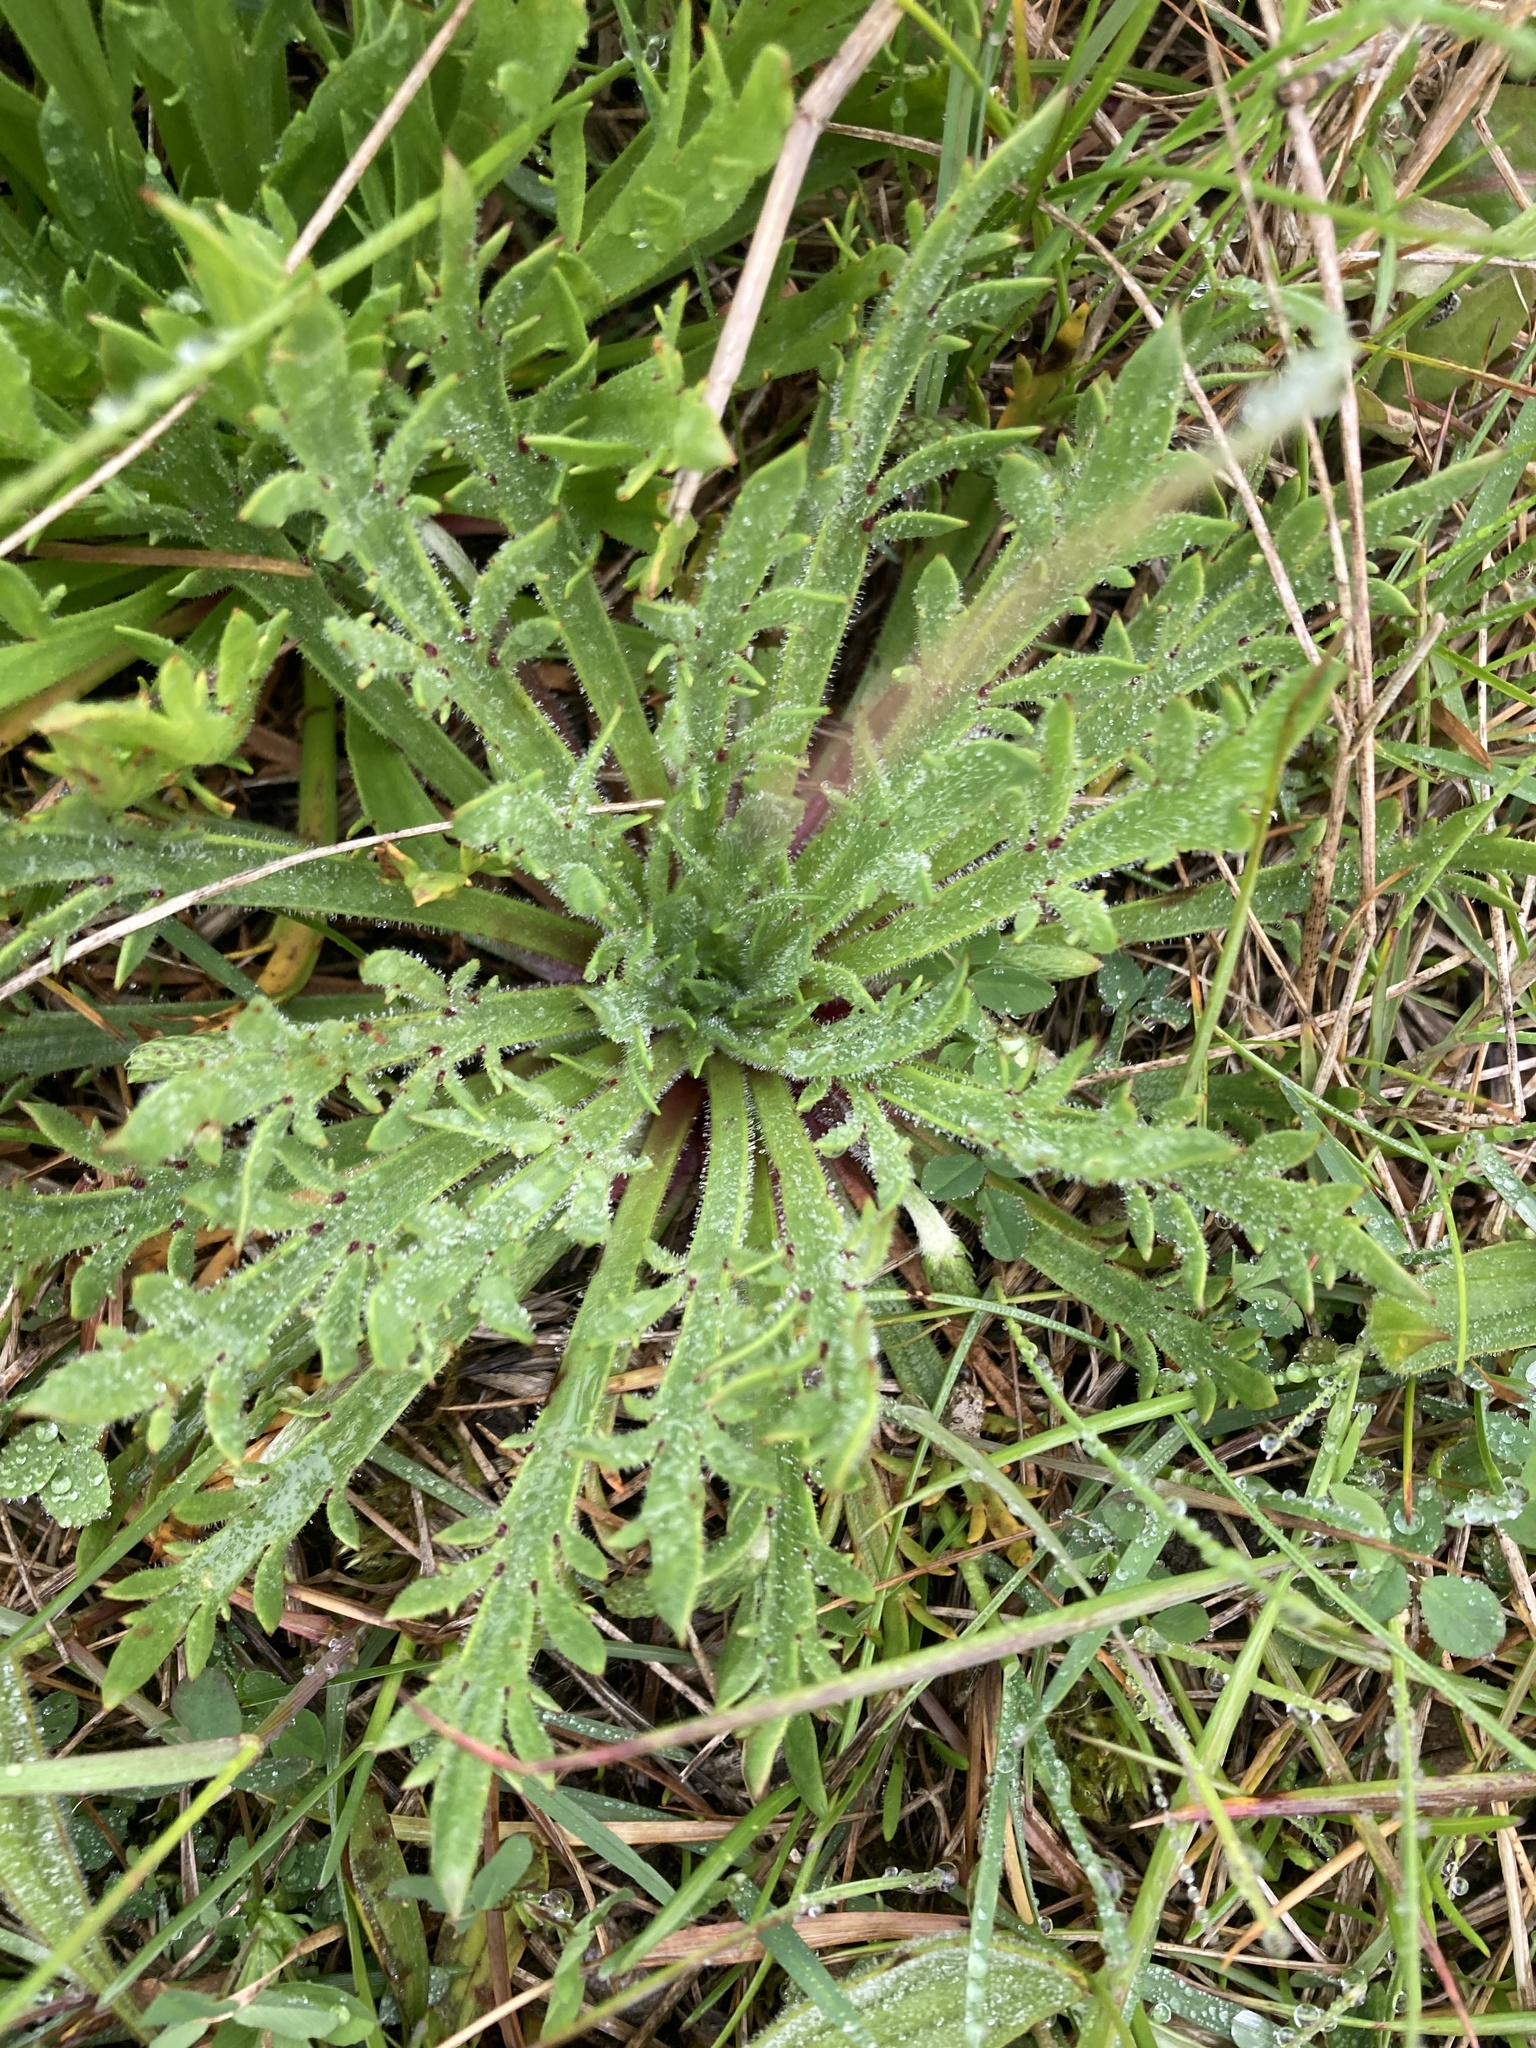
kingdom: Plantae
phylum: Tracheophyta
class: Magnoliopsida
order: Lamiales
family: Plantaginaceae
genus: Plantago
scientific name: Plantago coronopus
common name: Buck's-horn plantain
